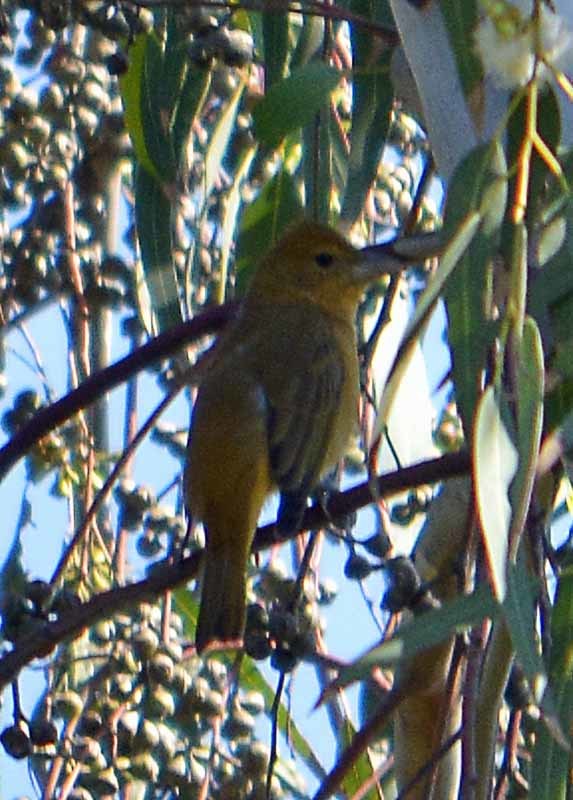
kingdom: Animalia
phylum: Chordata
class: Aves
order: Passeriformes
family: Cardinalidae
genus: Piranga
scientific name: Piranga rubra
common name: Summer tanager
